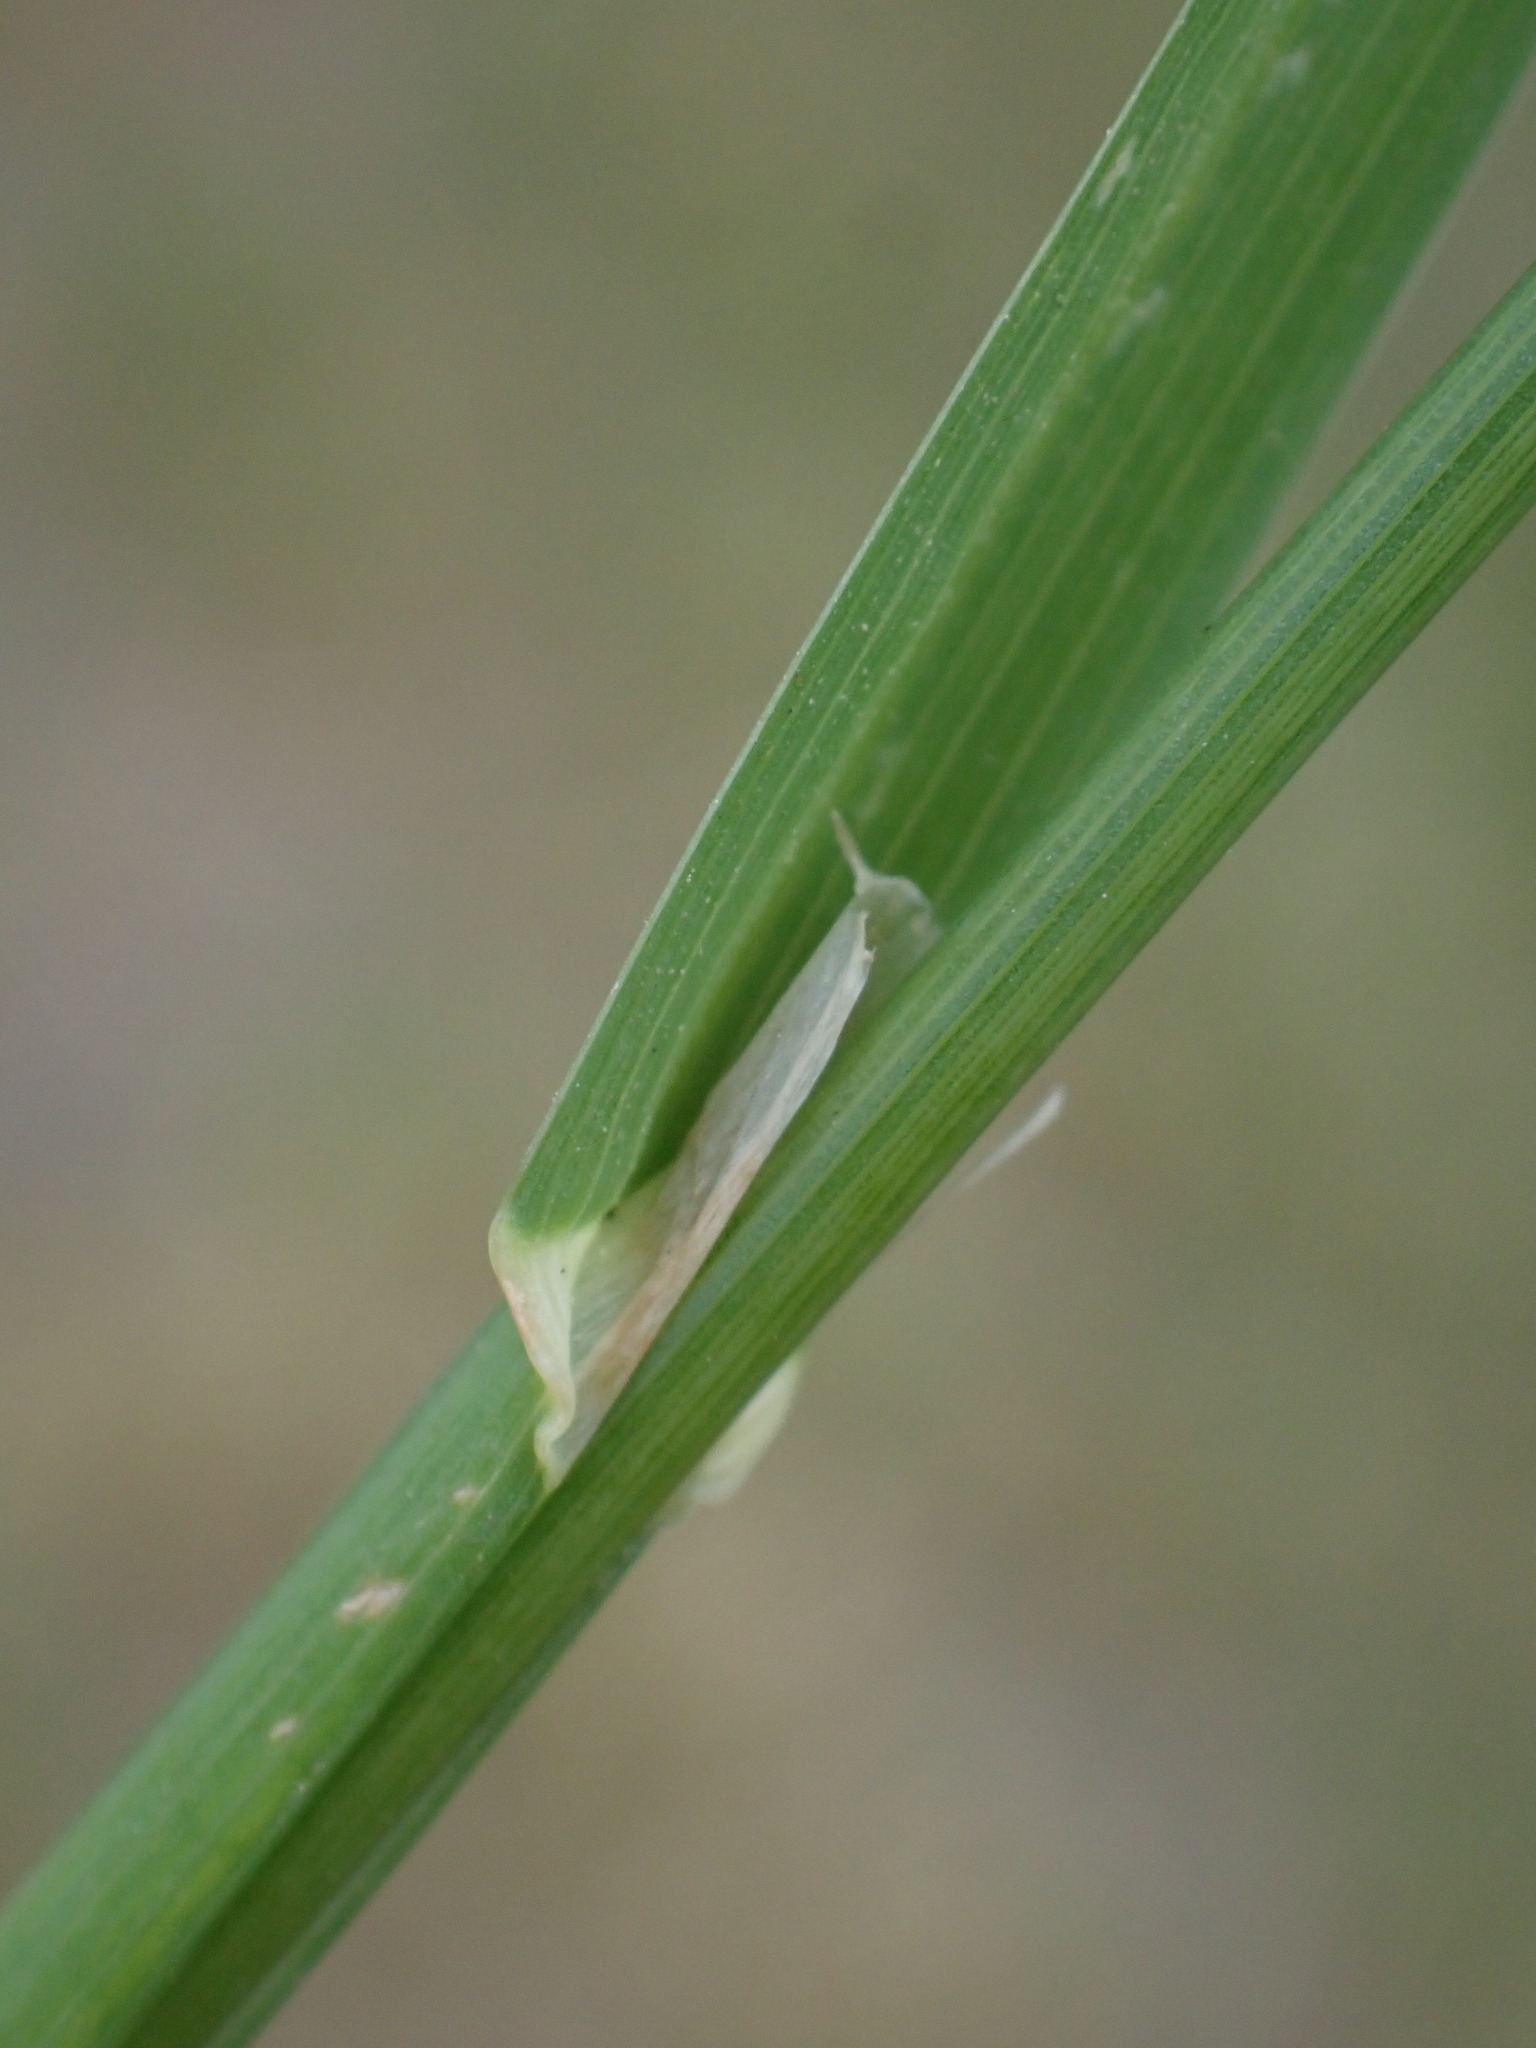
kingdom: Plantae
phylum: Tracheophyta
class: Liliopsida
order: Poales
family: Poaceae
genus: Dactylis
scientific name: Dactylis glomerata
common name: Orchardgrass
